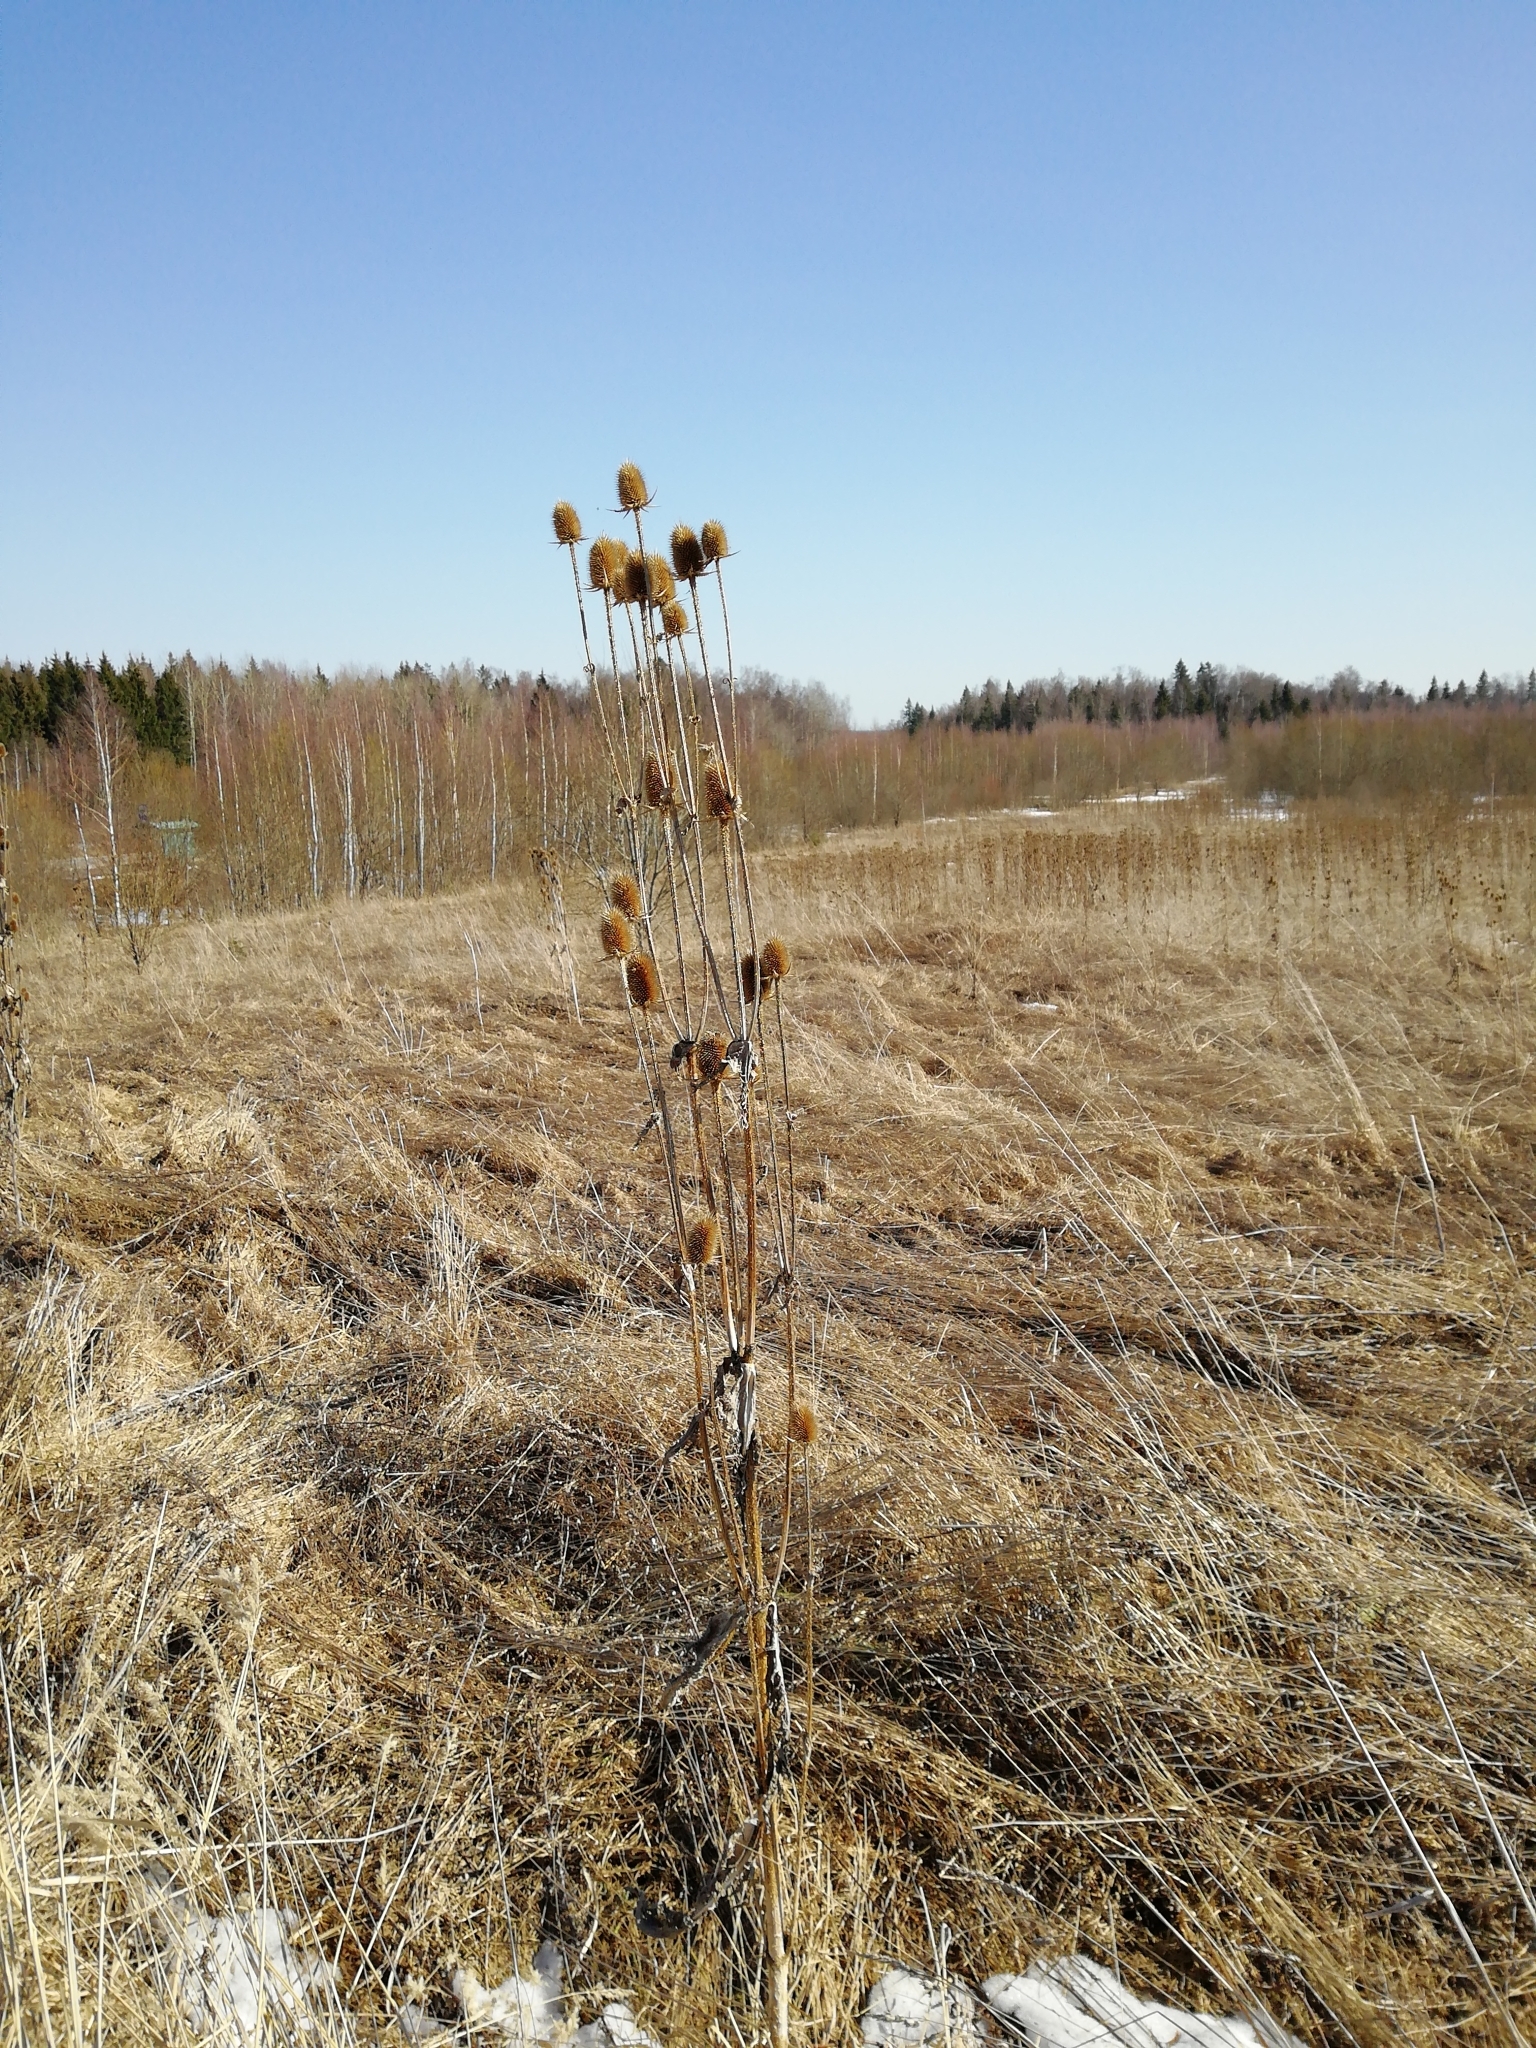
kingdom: Plantae
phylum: Tracheophyta
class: Magnoliopsida
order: Dipsacales
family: Caprifoliaceae
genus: Dipsacus
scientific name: Dipsacus laciniatus
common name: Cut-leaved teasel
